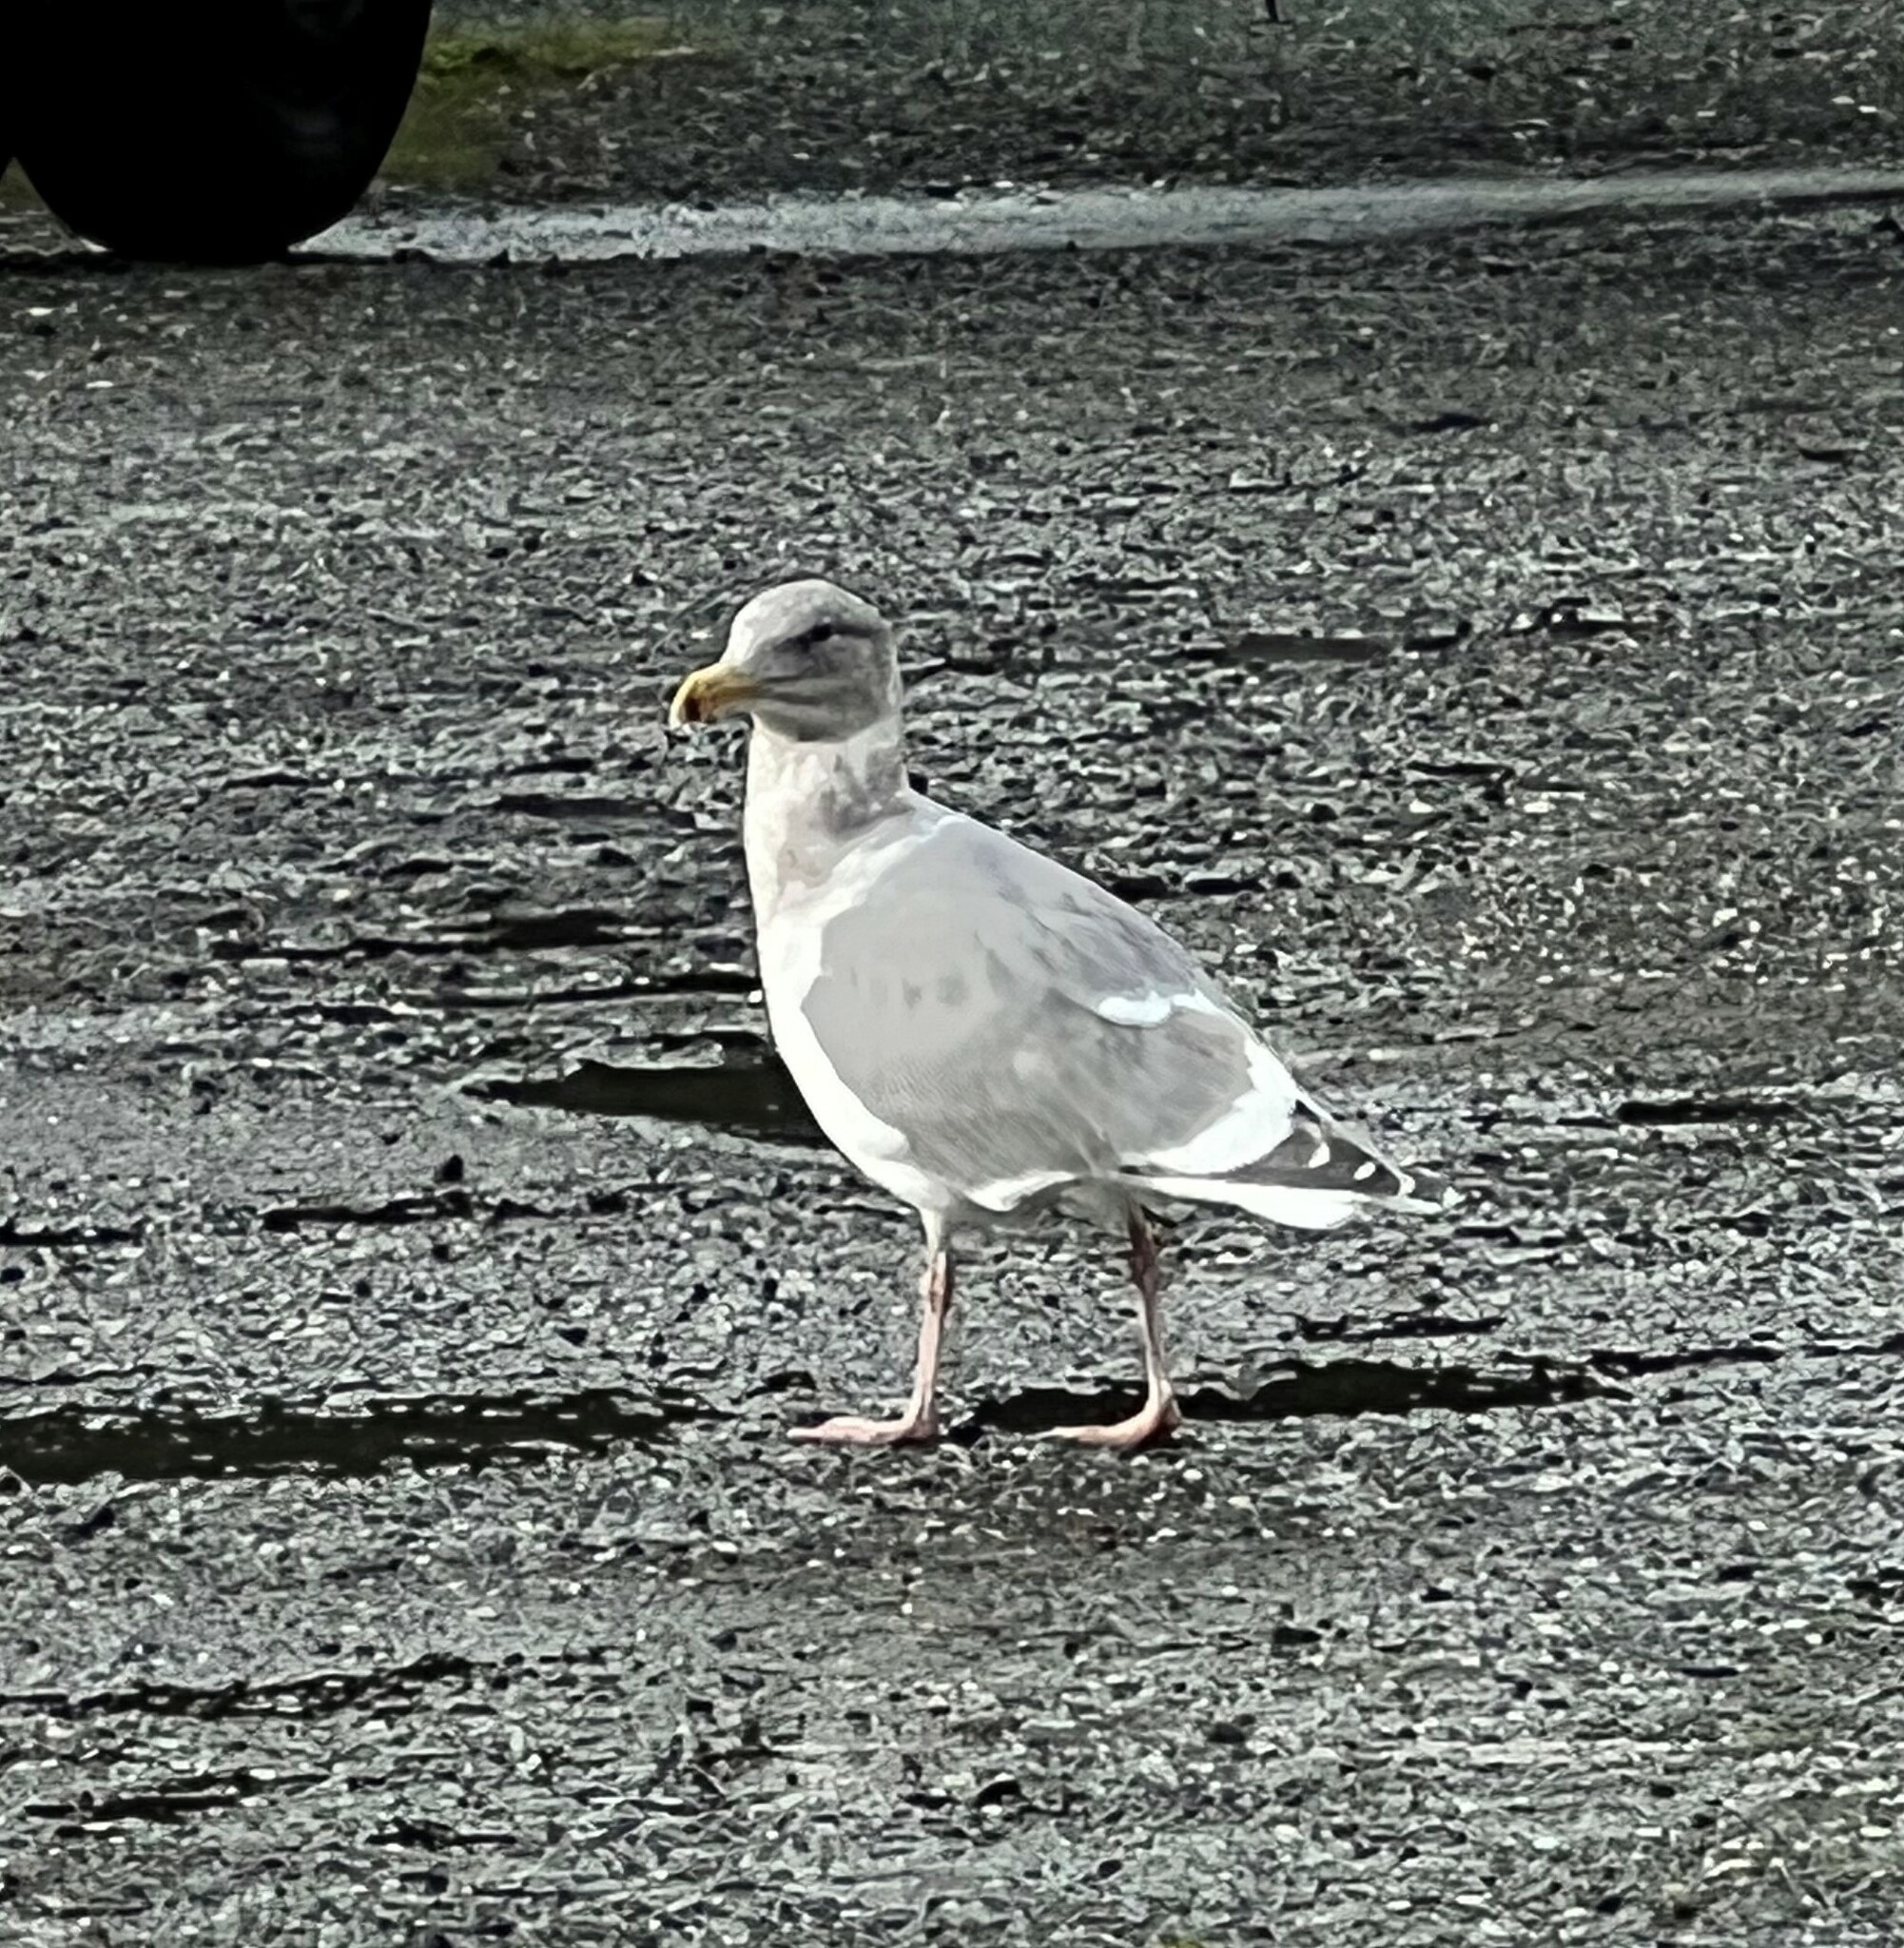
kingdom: Animalia
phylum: Chordata
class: Aves
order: Charadriiformes
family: Laridae
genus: Larus
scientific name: Larus
